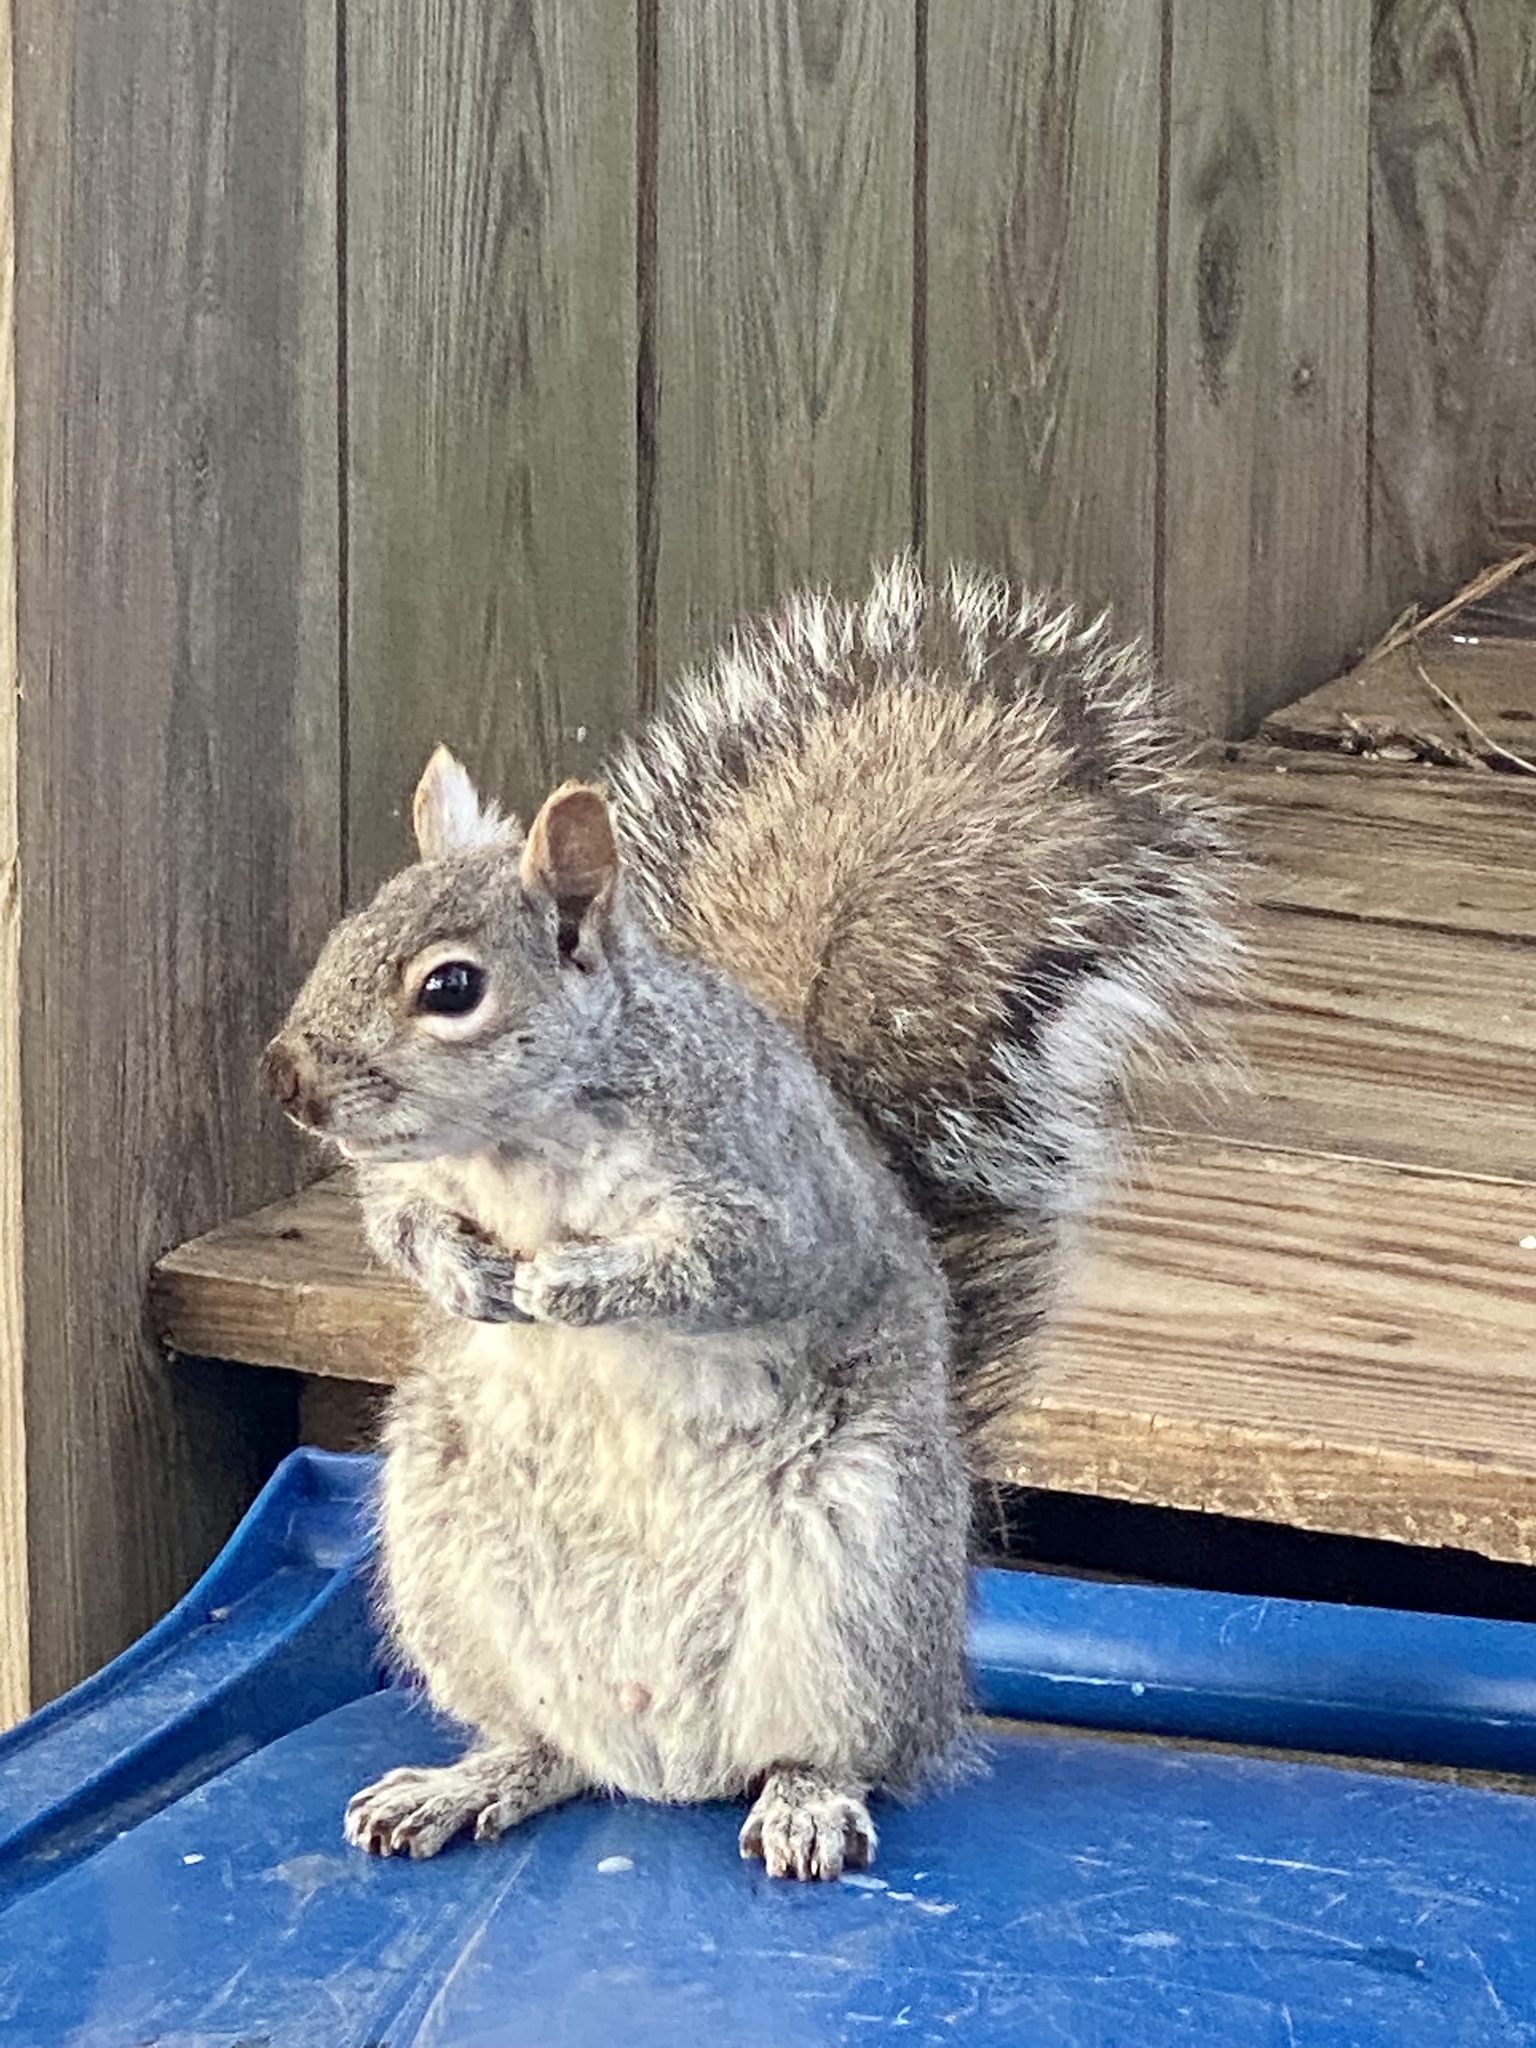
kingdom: Animalia
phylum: Chordata
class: Mammalia
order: Rodentia
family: Sciuridae
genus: Sciurus
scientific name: Sciurus carolinensis
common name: Eastern gray squirrel
